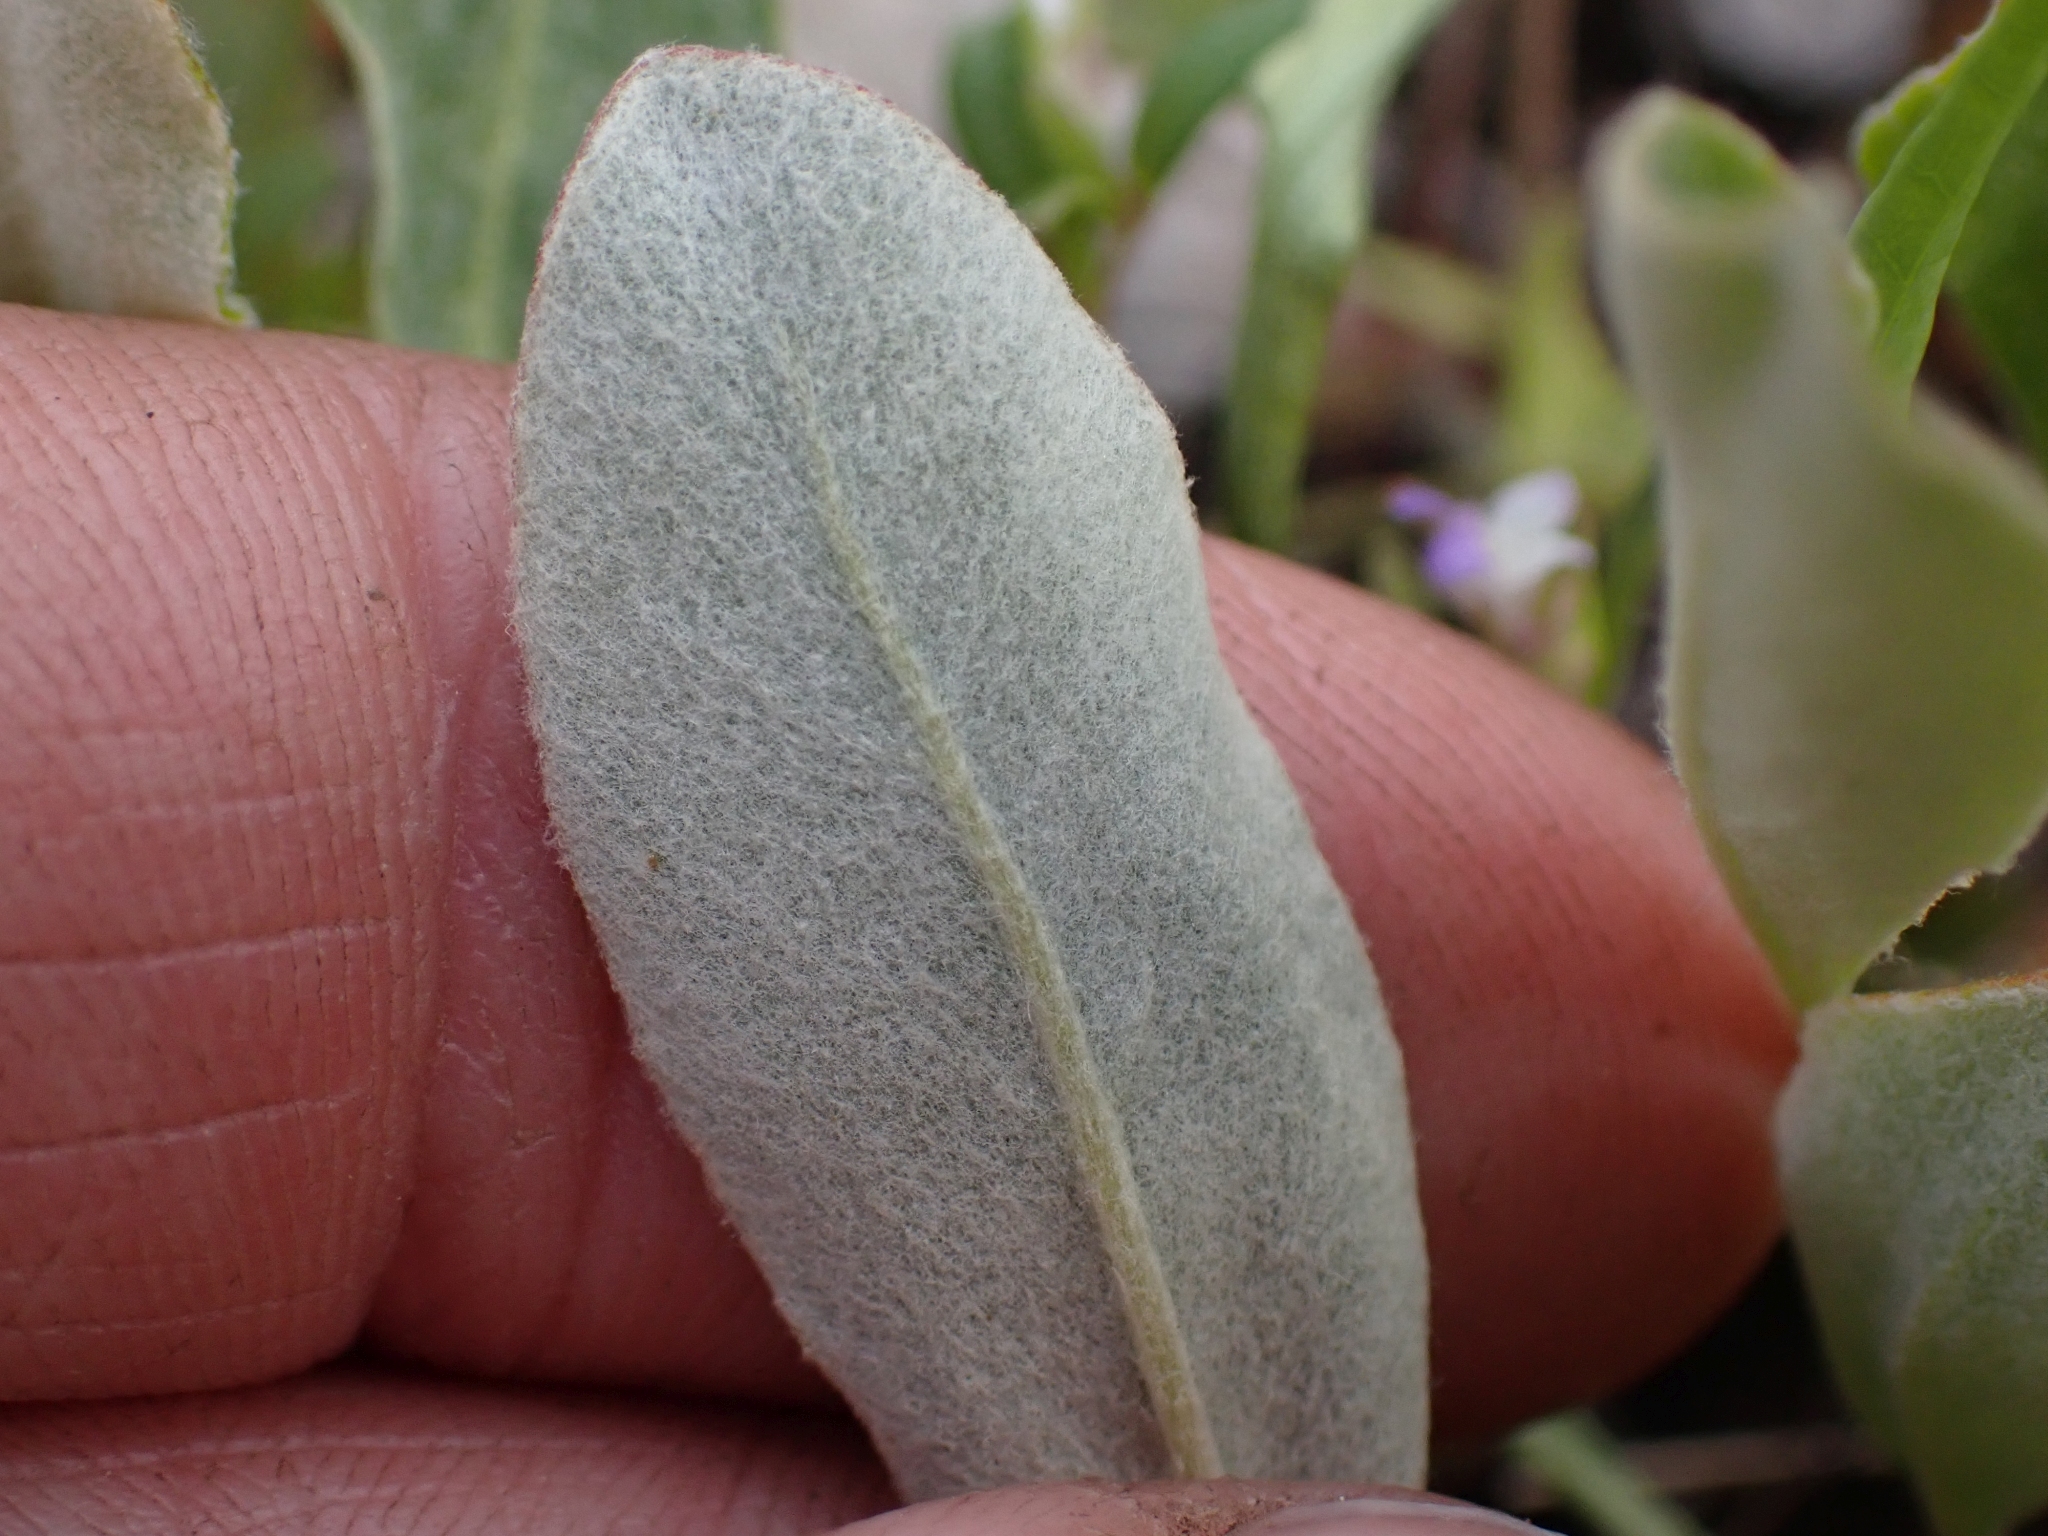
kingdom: Plantae
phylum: Tracheophyta
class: Magnoliopsida
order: Caryophyllales
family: Polygonaceae
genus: Eriogonum
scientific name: Eriogonum umbellatum
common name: Sulfur-buckwheat
